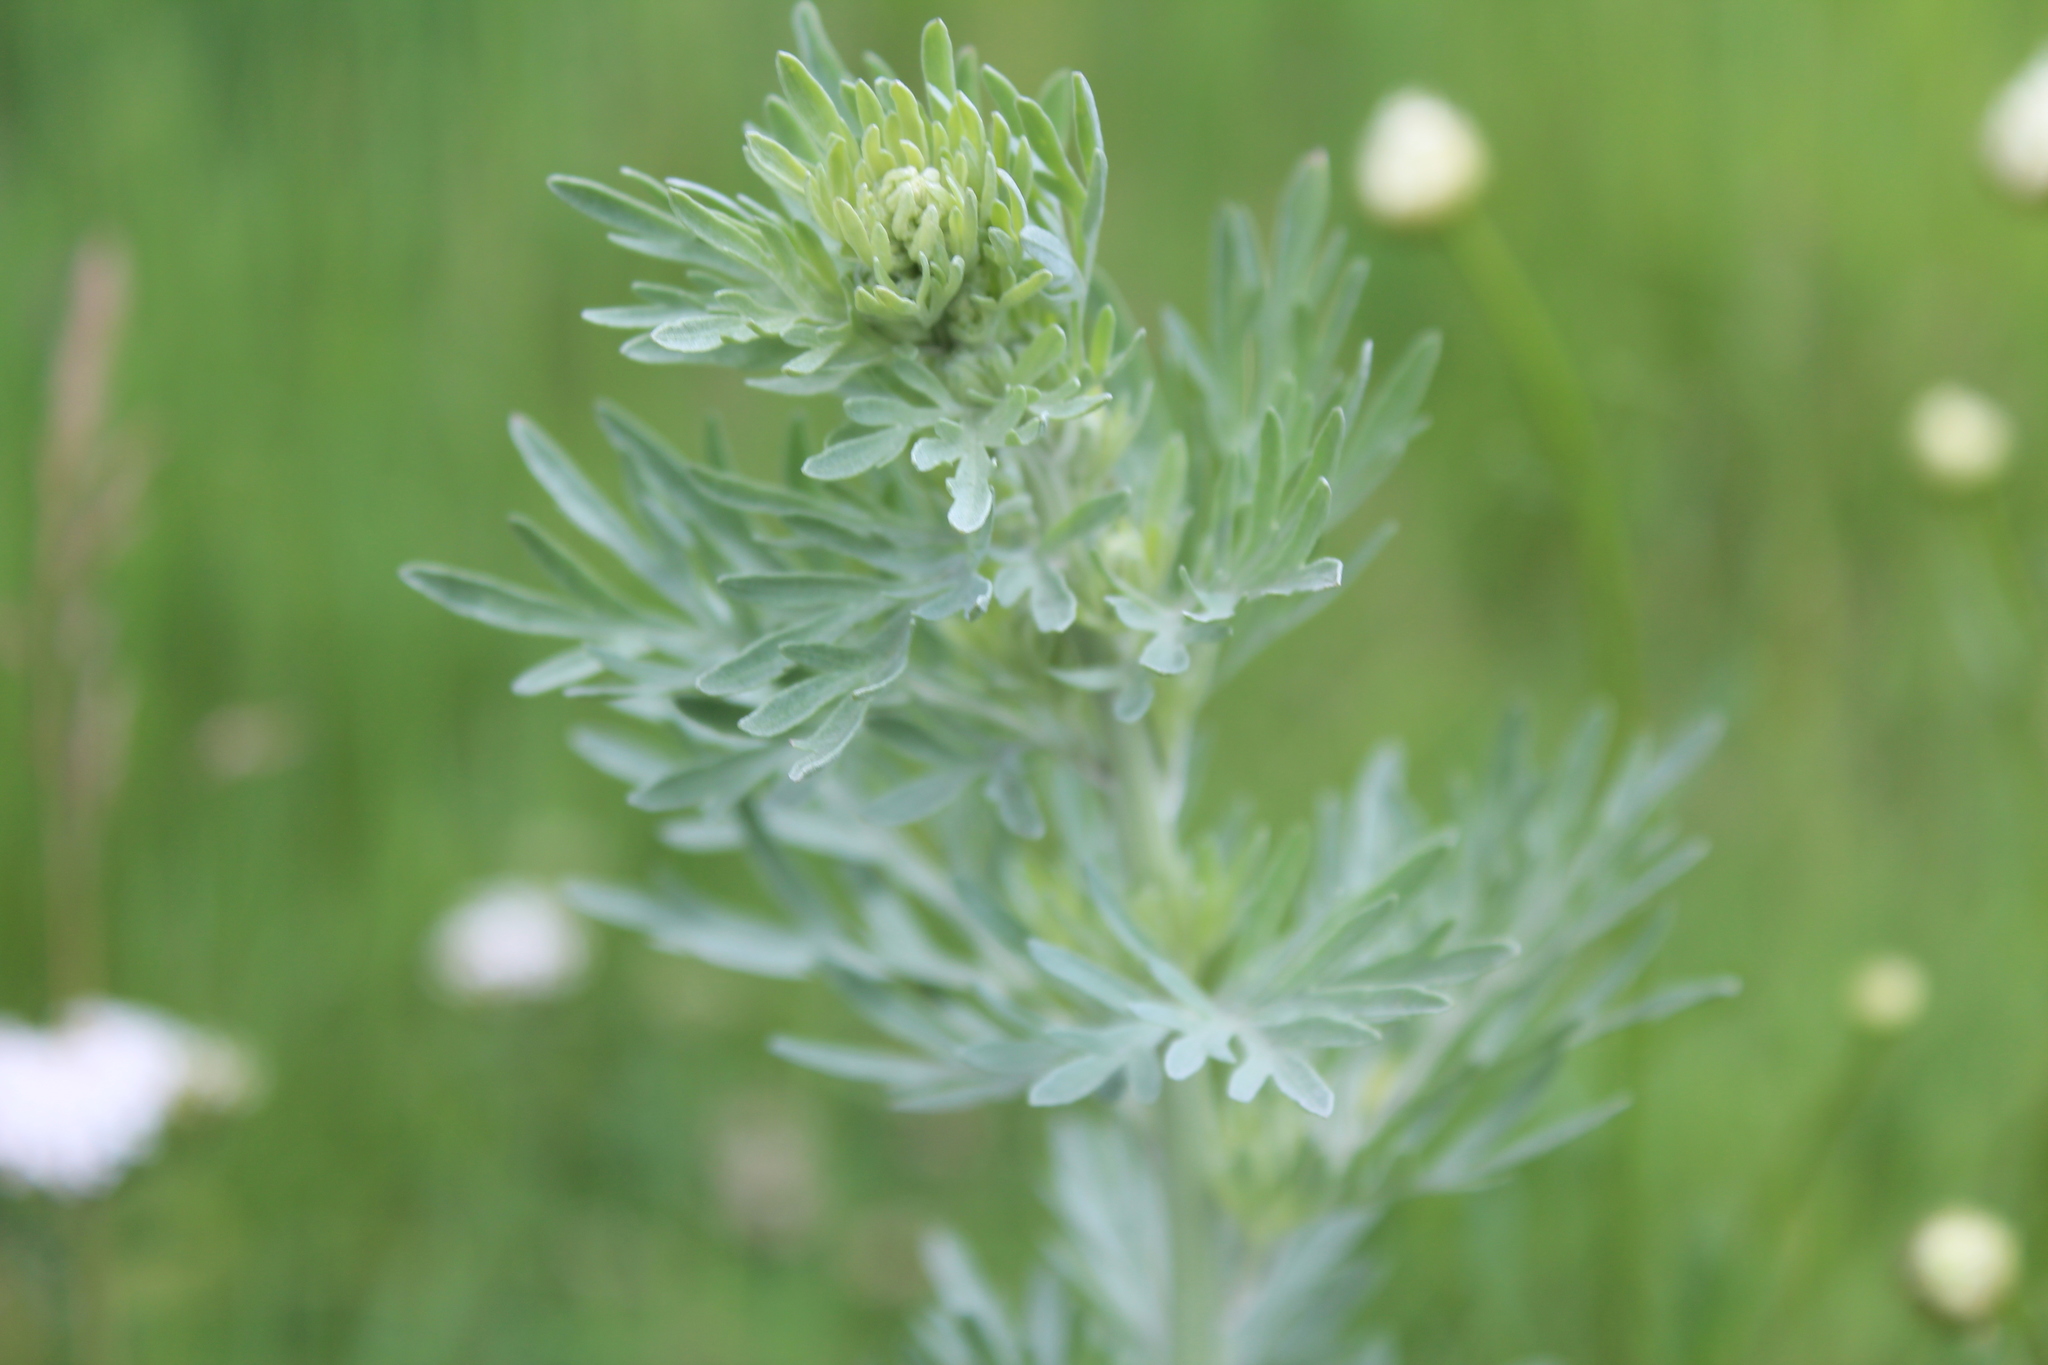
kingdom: Plantae
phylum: Tracheophyta
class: Magnoliopsida
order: Asterales
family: Asteraceae
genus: Artemisia
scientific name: Artemisia absinthium
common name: Wormwood
